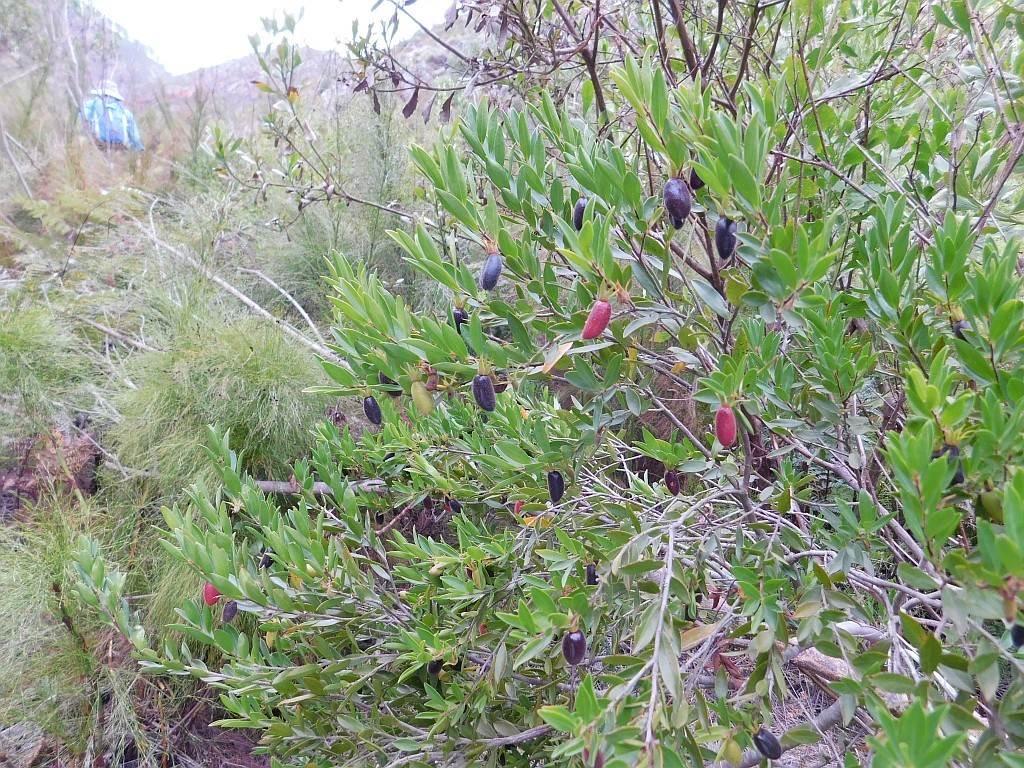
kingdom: Plantae
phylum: Tracheophyta
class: Magnoliopsida
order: Ericales
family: Ebenaceae
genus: Diospyros
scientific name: Diospyros glabra
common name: Fynbos star apple
